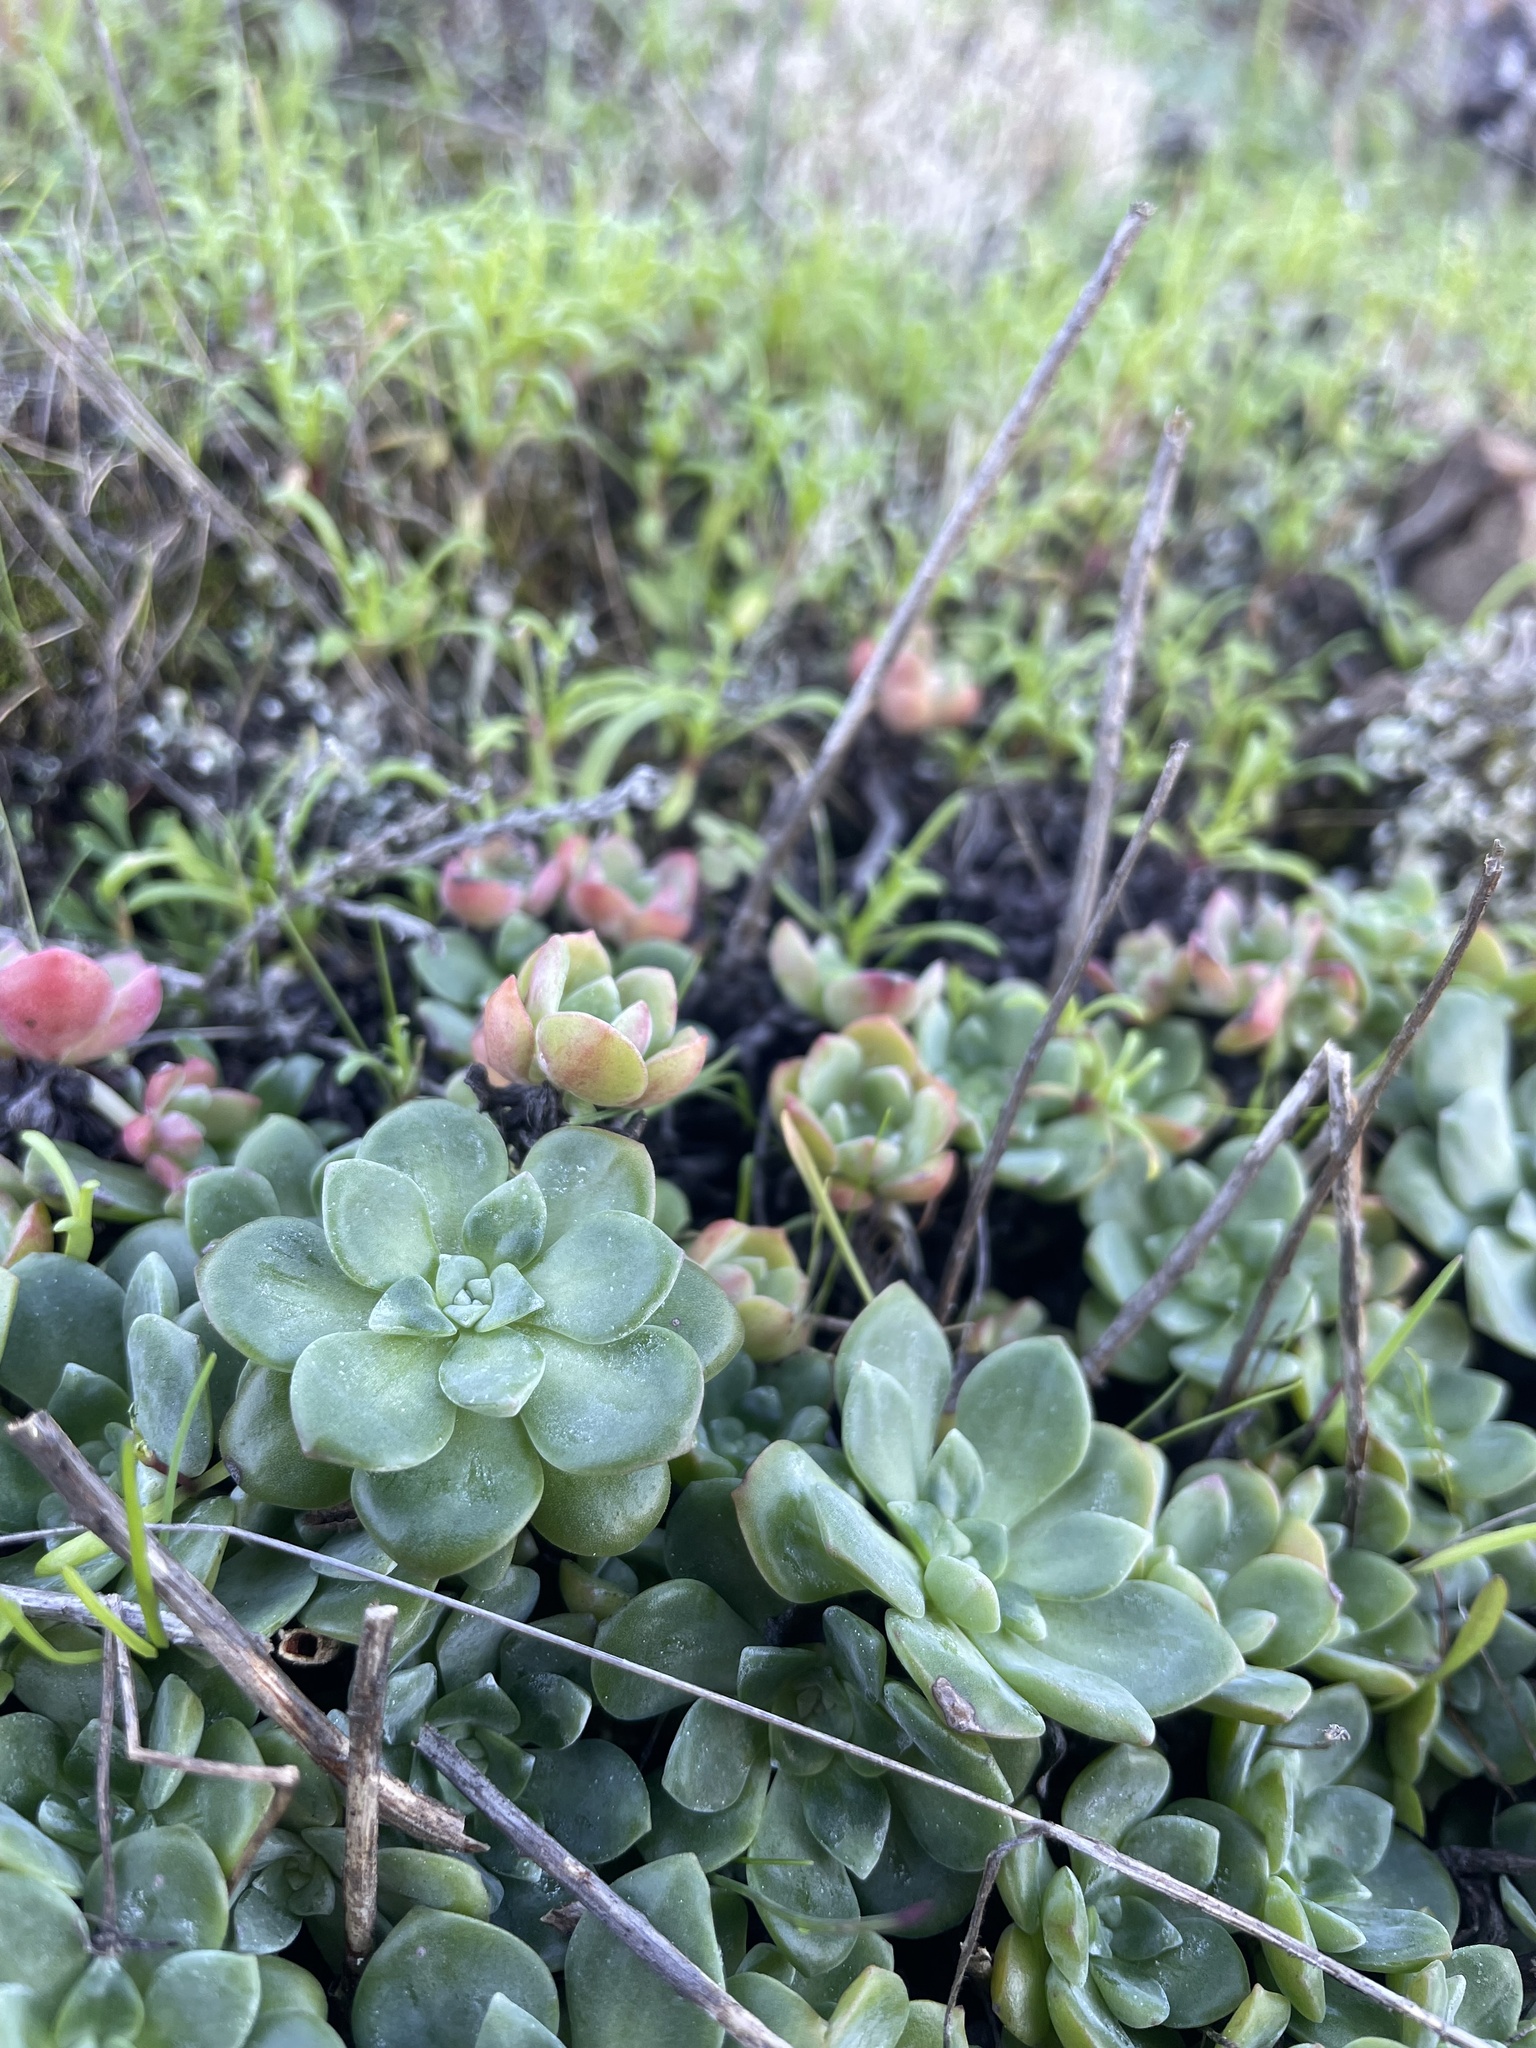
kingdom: Plantae
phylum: Tracheophyta
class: Magnoliopsida
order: Saxifragales
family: Crassulaceae
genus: Sedum
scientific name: Sedum spathulifolium
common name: Colorado stonecrop
